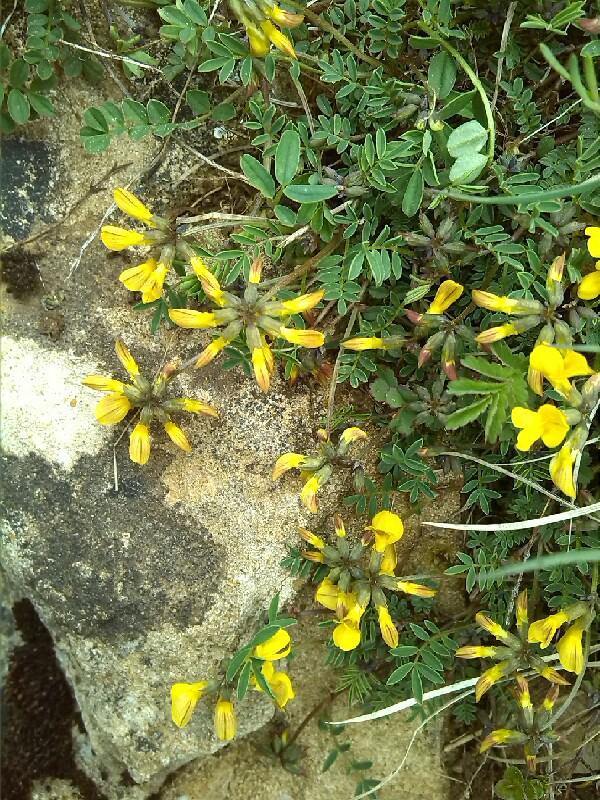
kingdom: Plantae
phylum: Tracheophyta
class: Magnoliopsida
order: Fabales
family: Fabaceae
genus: Hippocrepis
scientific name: Hippocrepis comosa
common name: Horseshoe vetch
